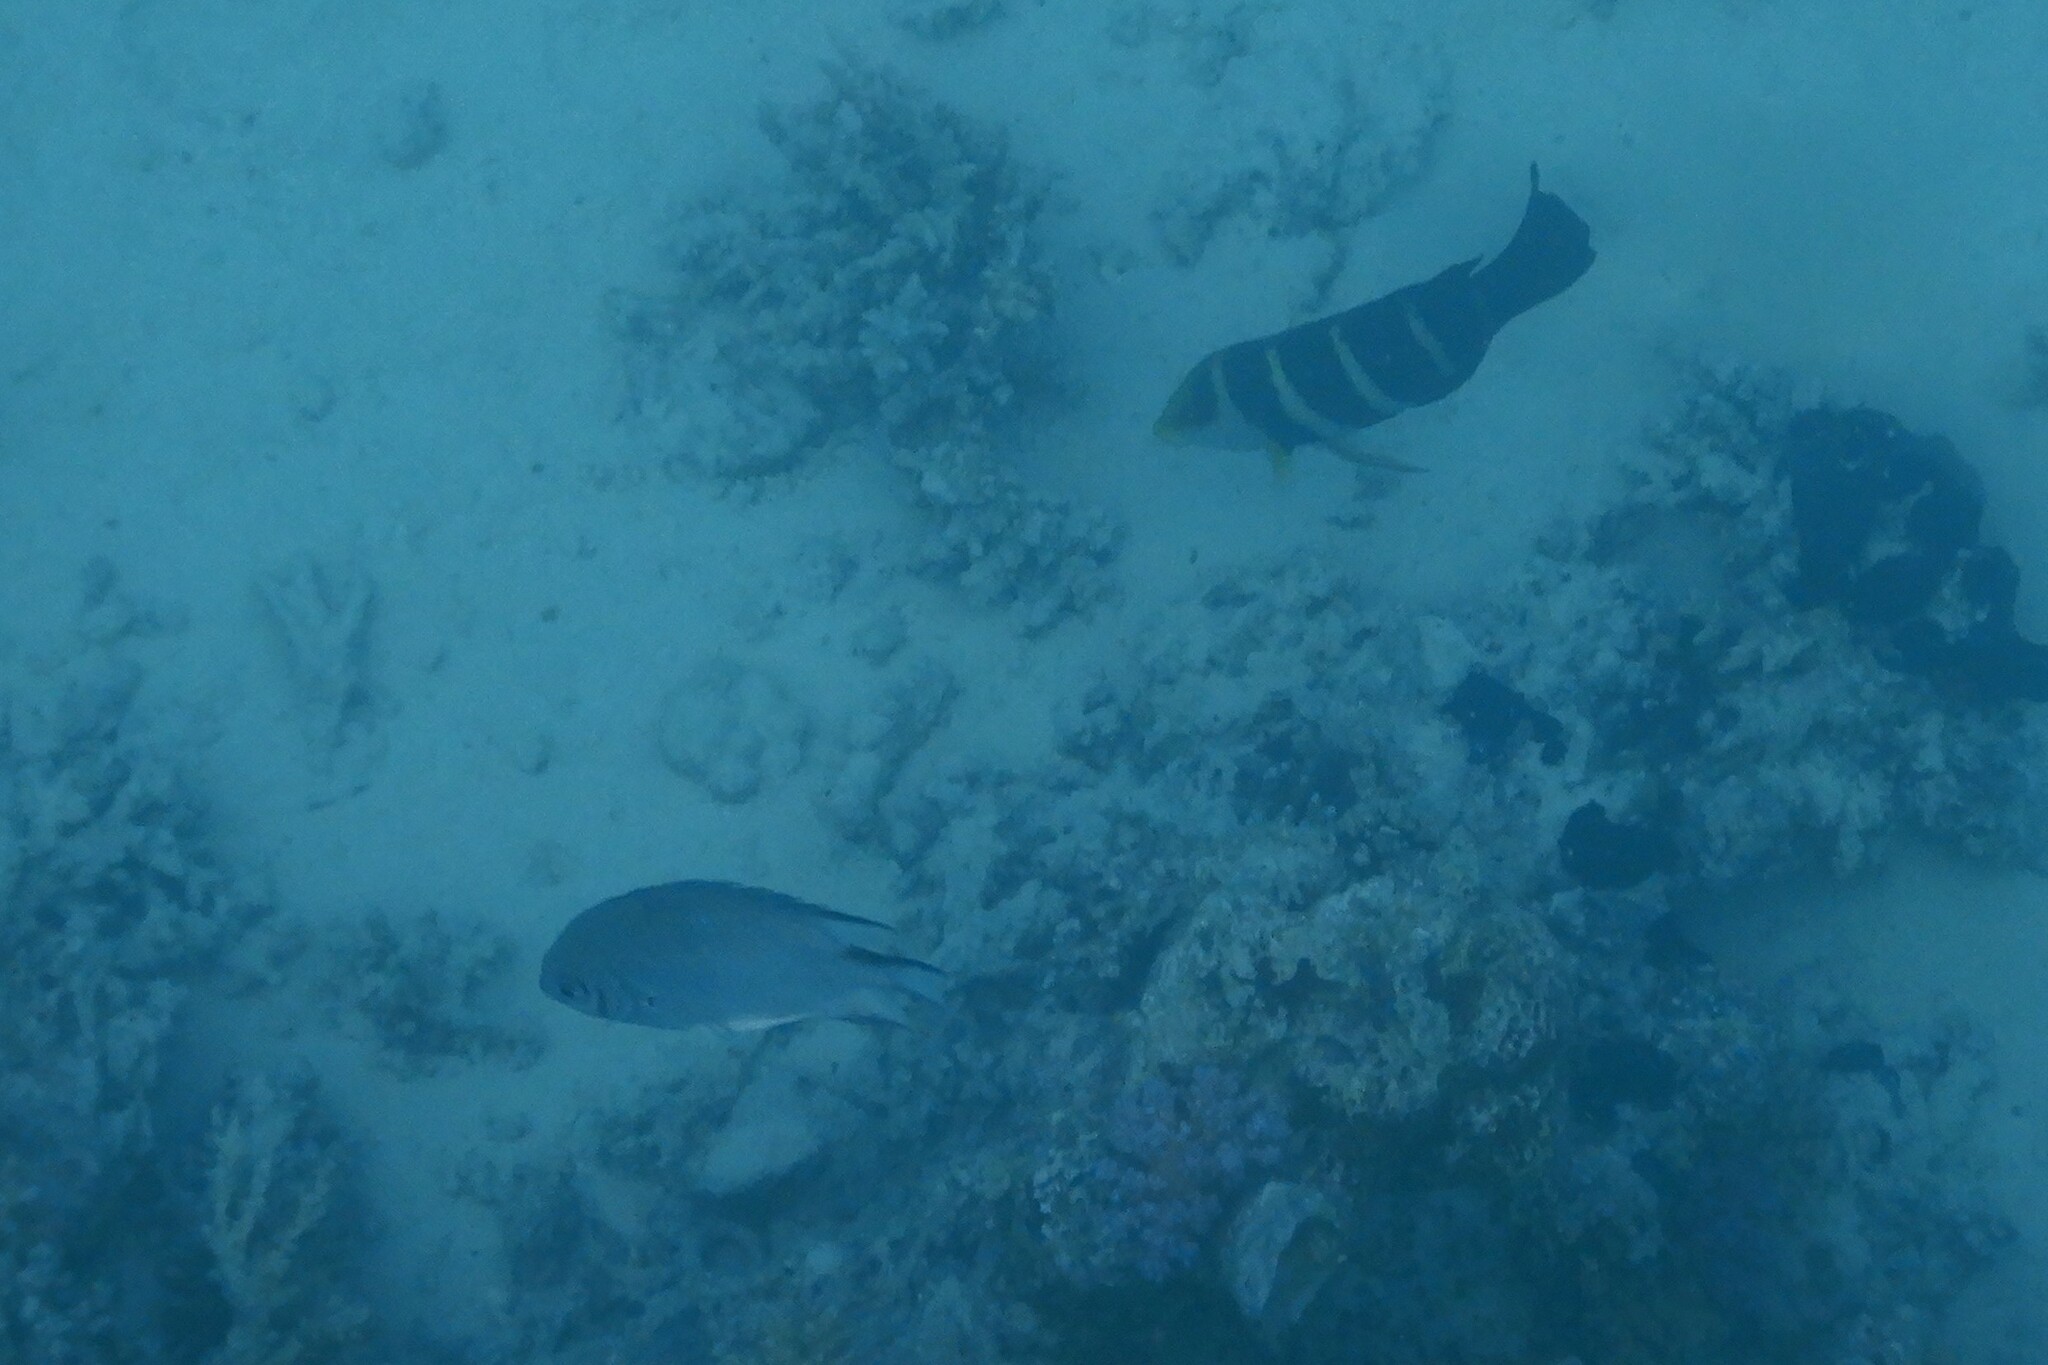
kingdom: Animalia
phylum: Chordata
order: Perciformes
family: Labridae
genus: Hemigymnus
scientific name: Hemigymnus sexfasciatus
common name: Barred thicklip
